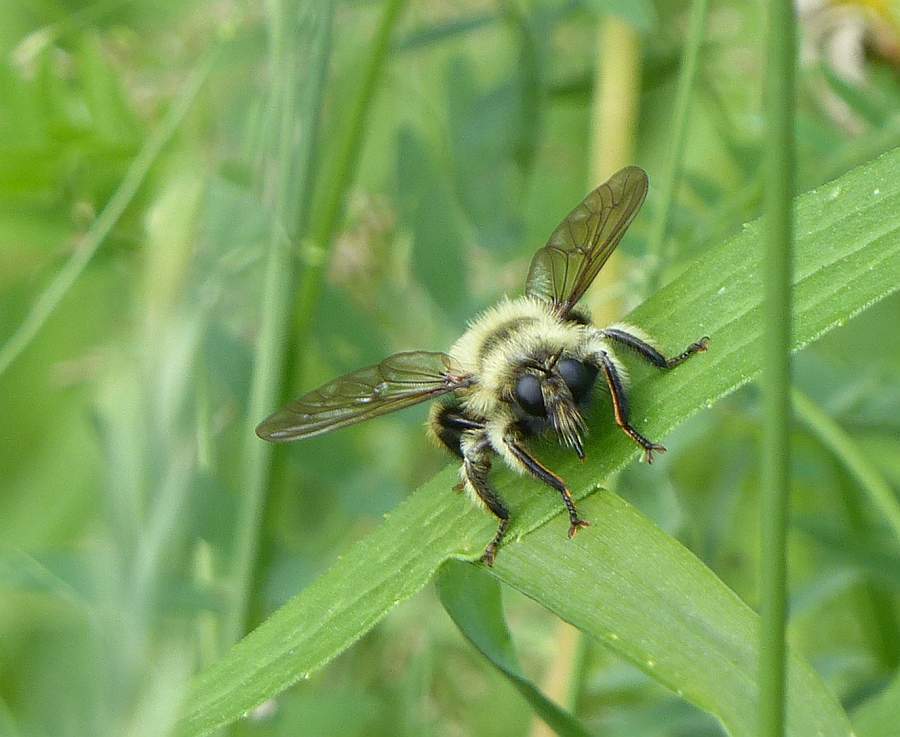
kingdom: Animalia
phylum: Arthropoda
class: Insecta
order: Diptera
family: Asilidae
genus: Laphria
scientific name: Laphria sacrator
